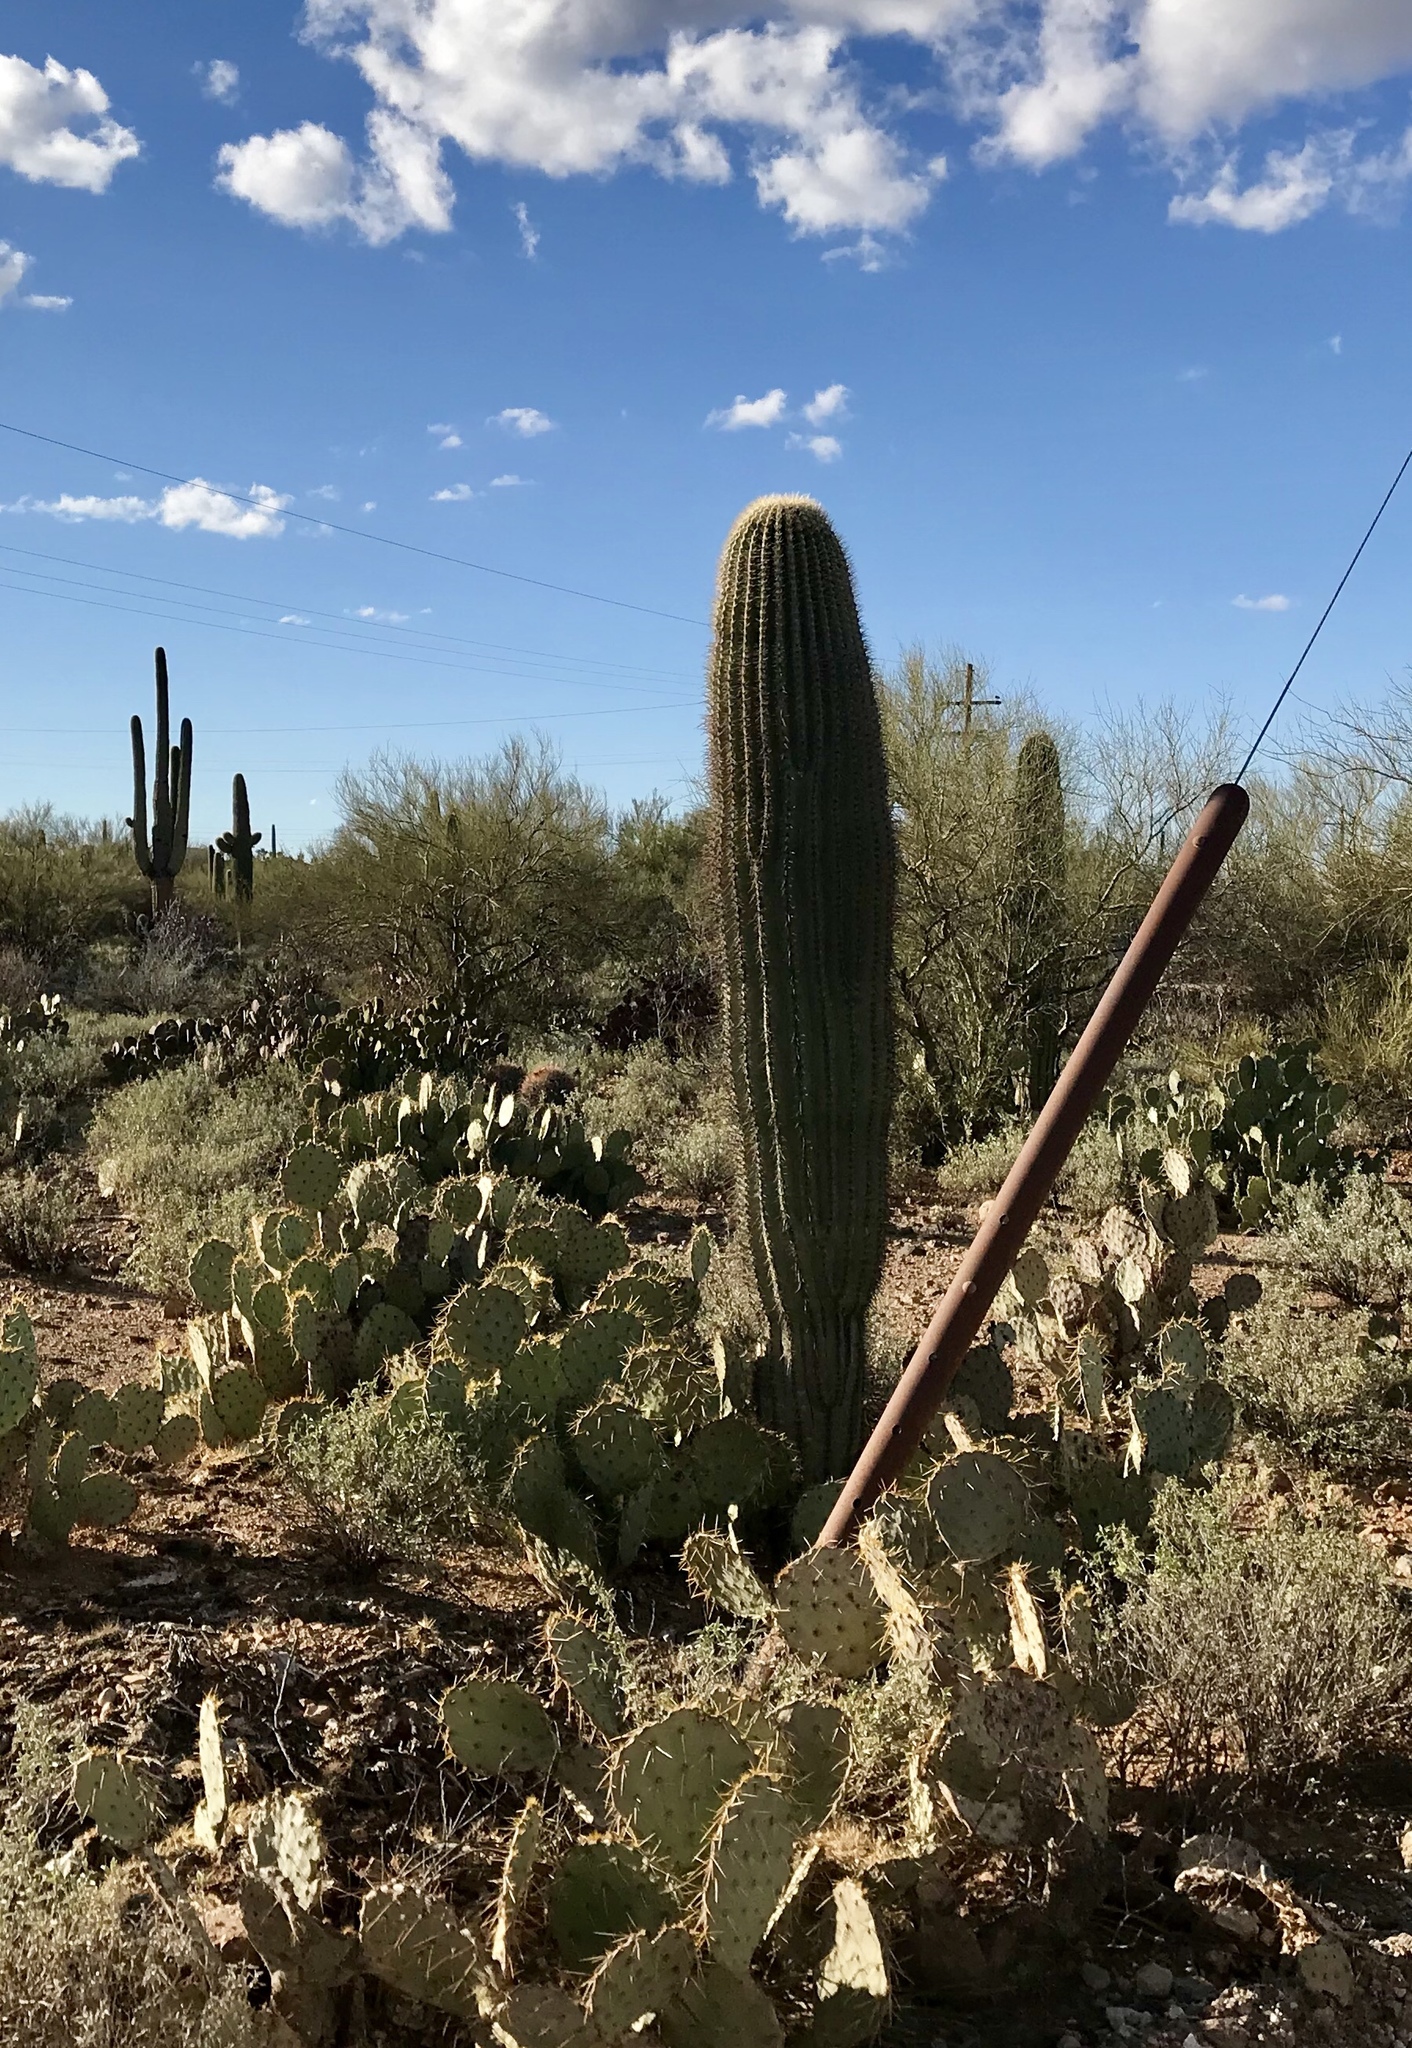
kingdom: Plantae
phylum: Tracheophyta
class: Magnoliopsida
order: Caryophyllales
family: Cactaceae
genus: Carnegiea
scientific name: Carnegiea gigantea
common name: Saguaro
